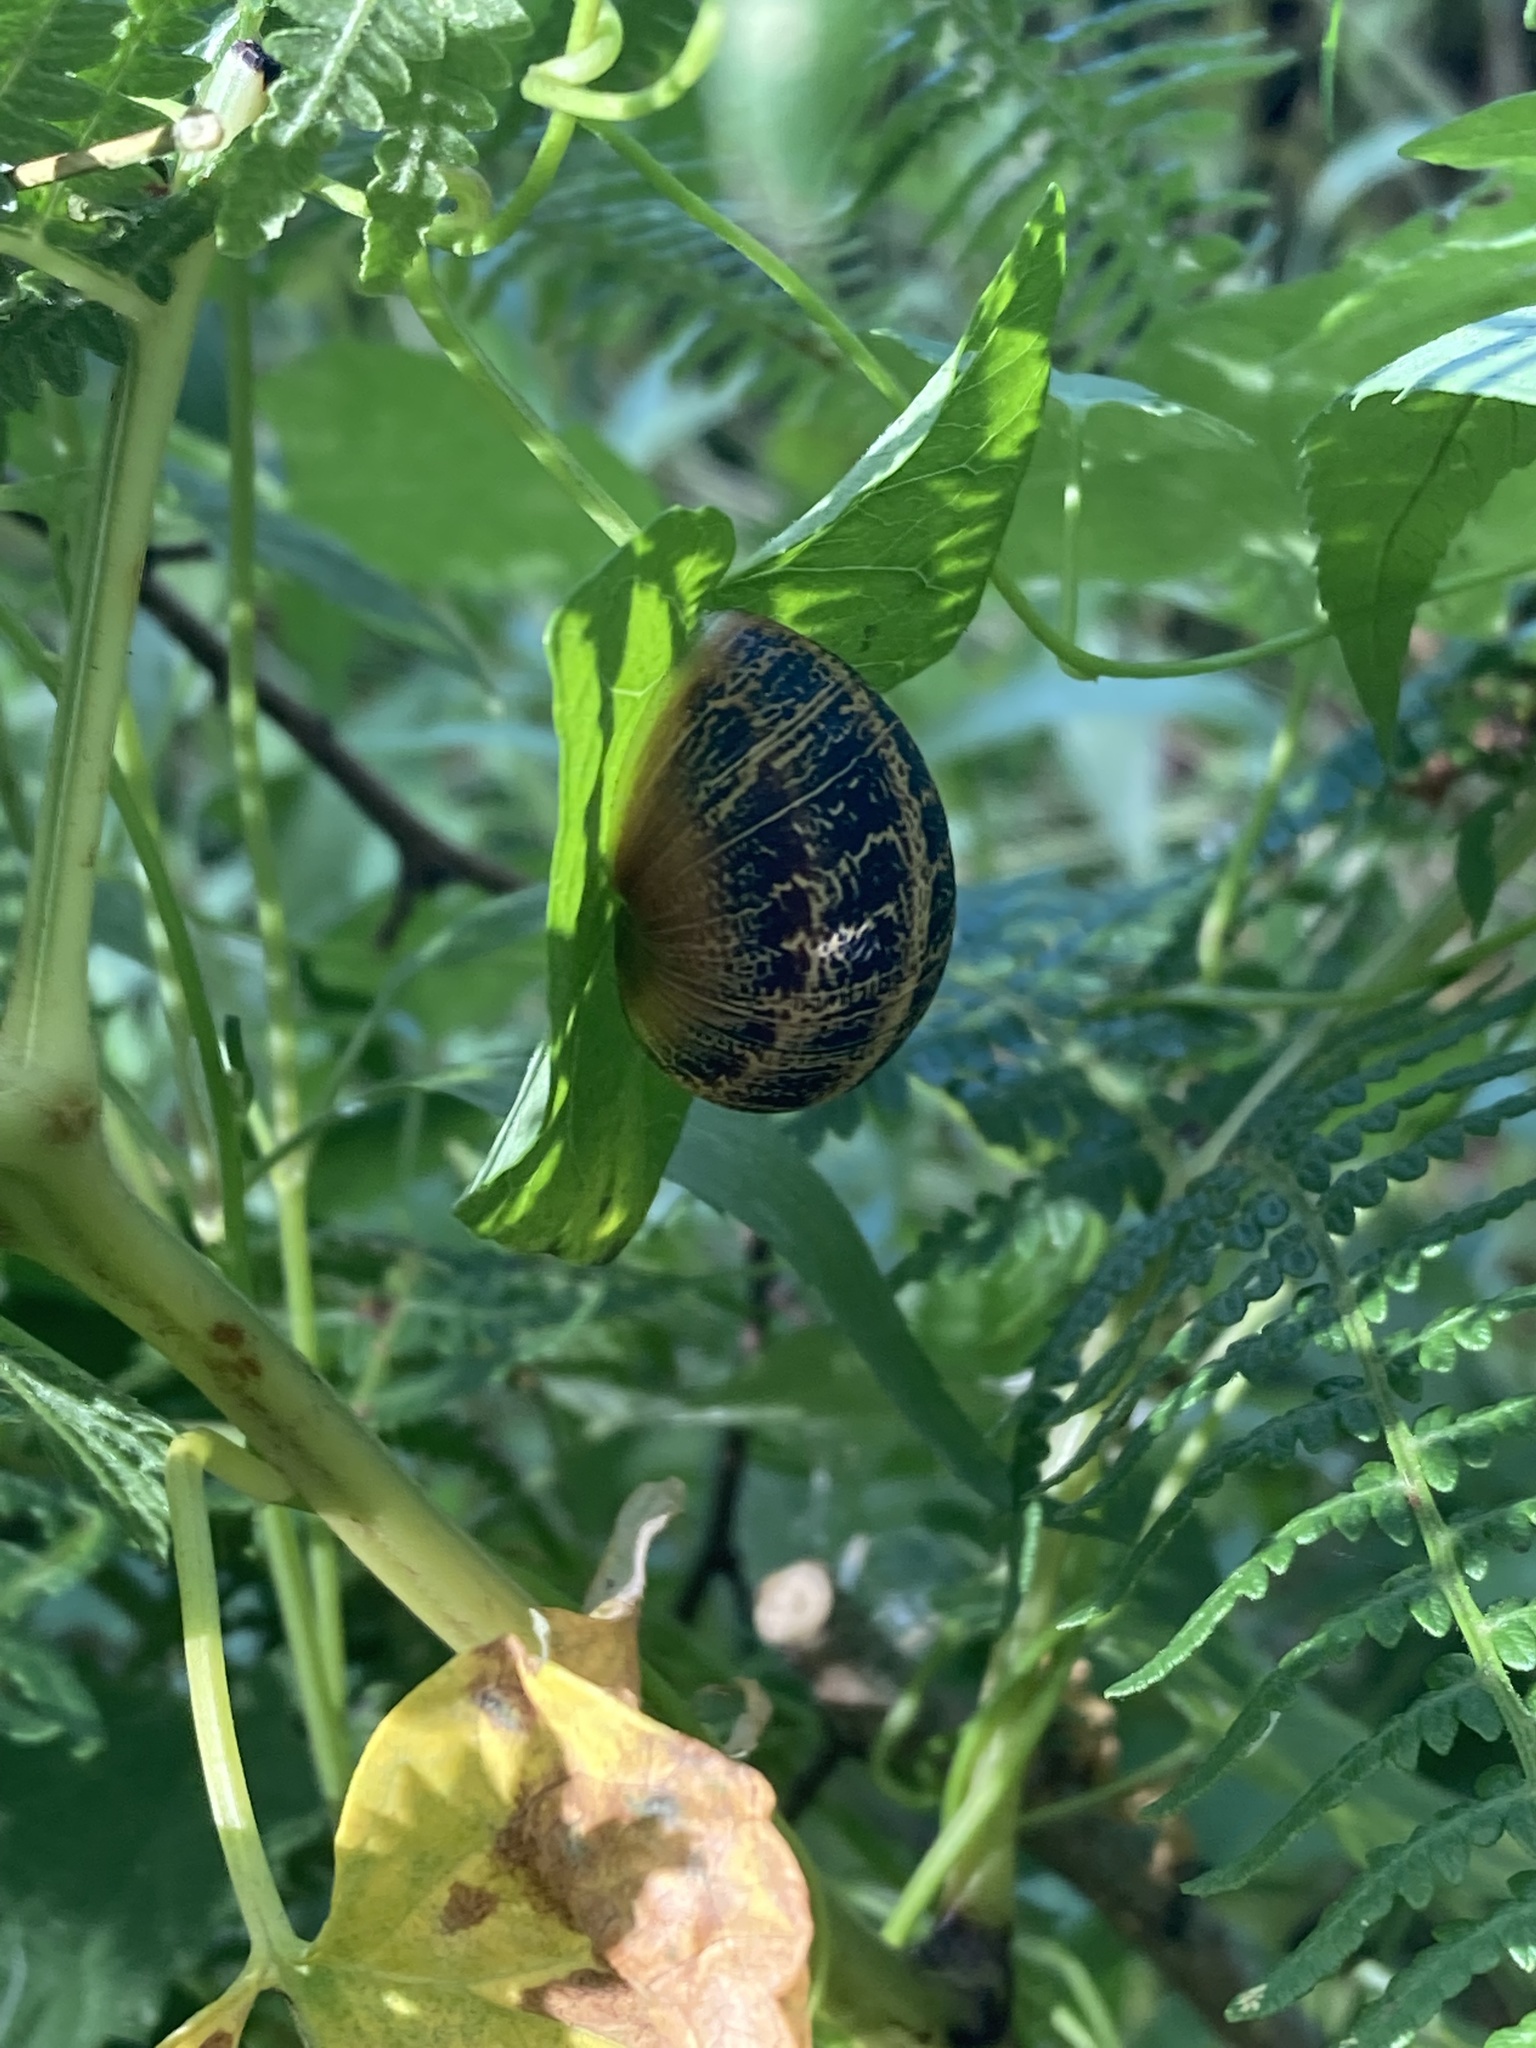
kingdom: Animalia
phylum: Mollusca
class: Gastropoda
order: Stylommatophora
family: Helicidae
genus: Cornu
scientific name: Cornu aspersum
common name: Brown garden snail
